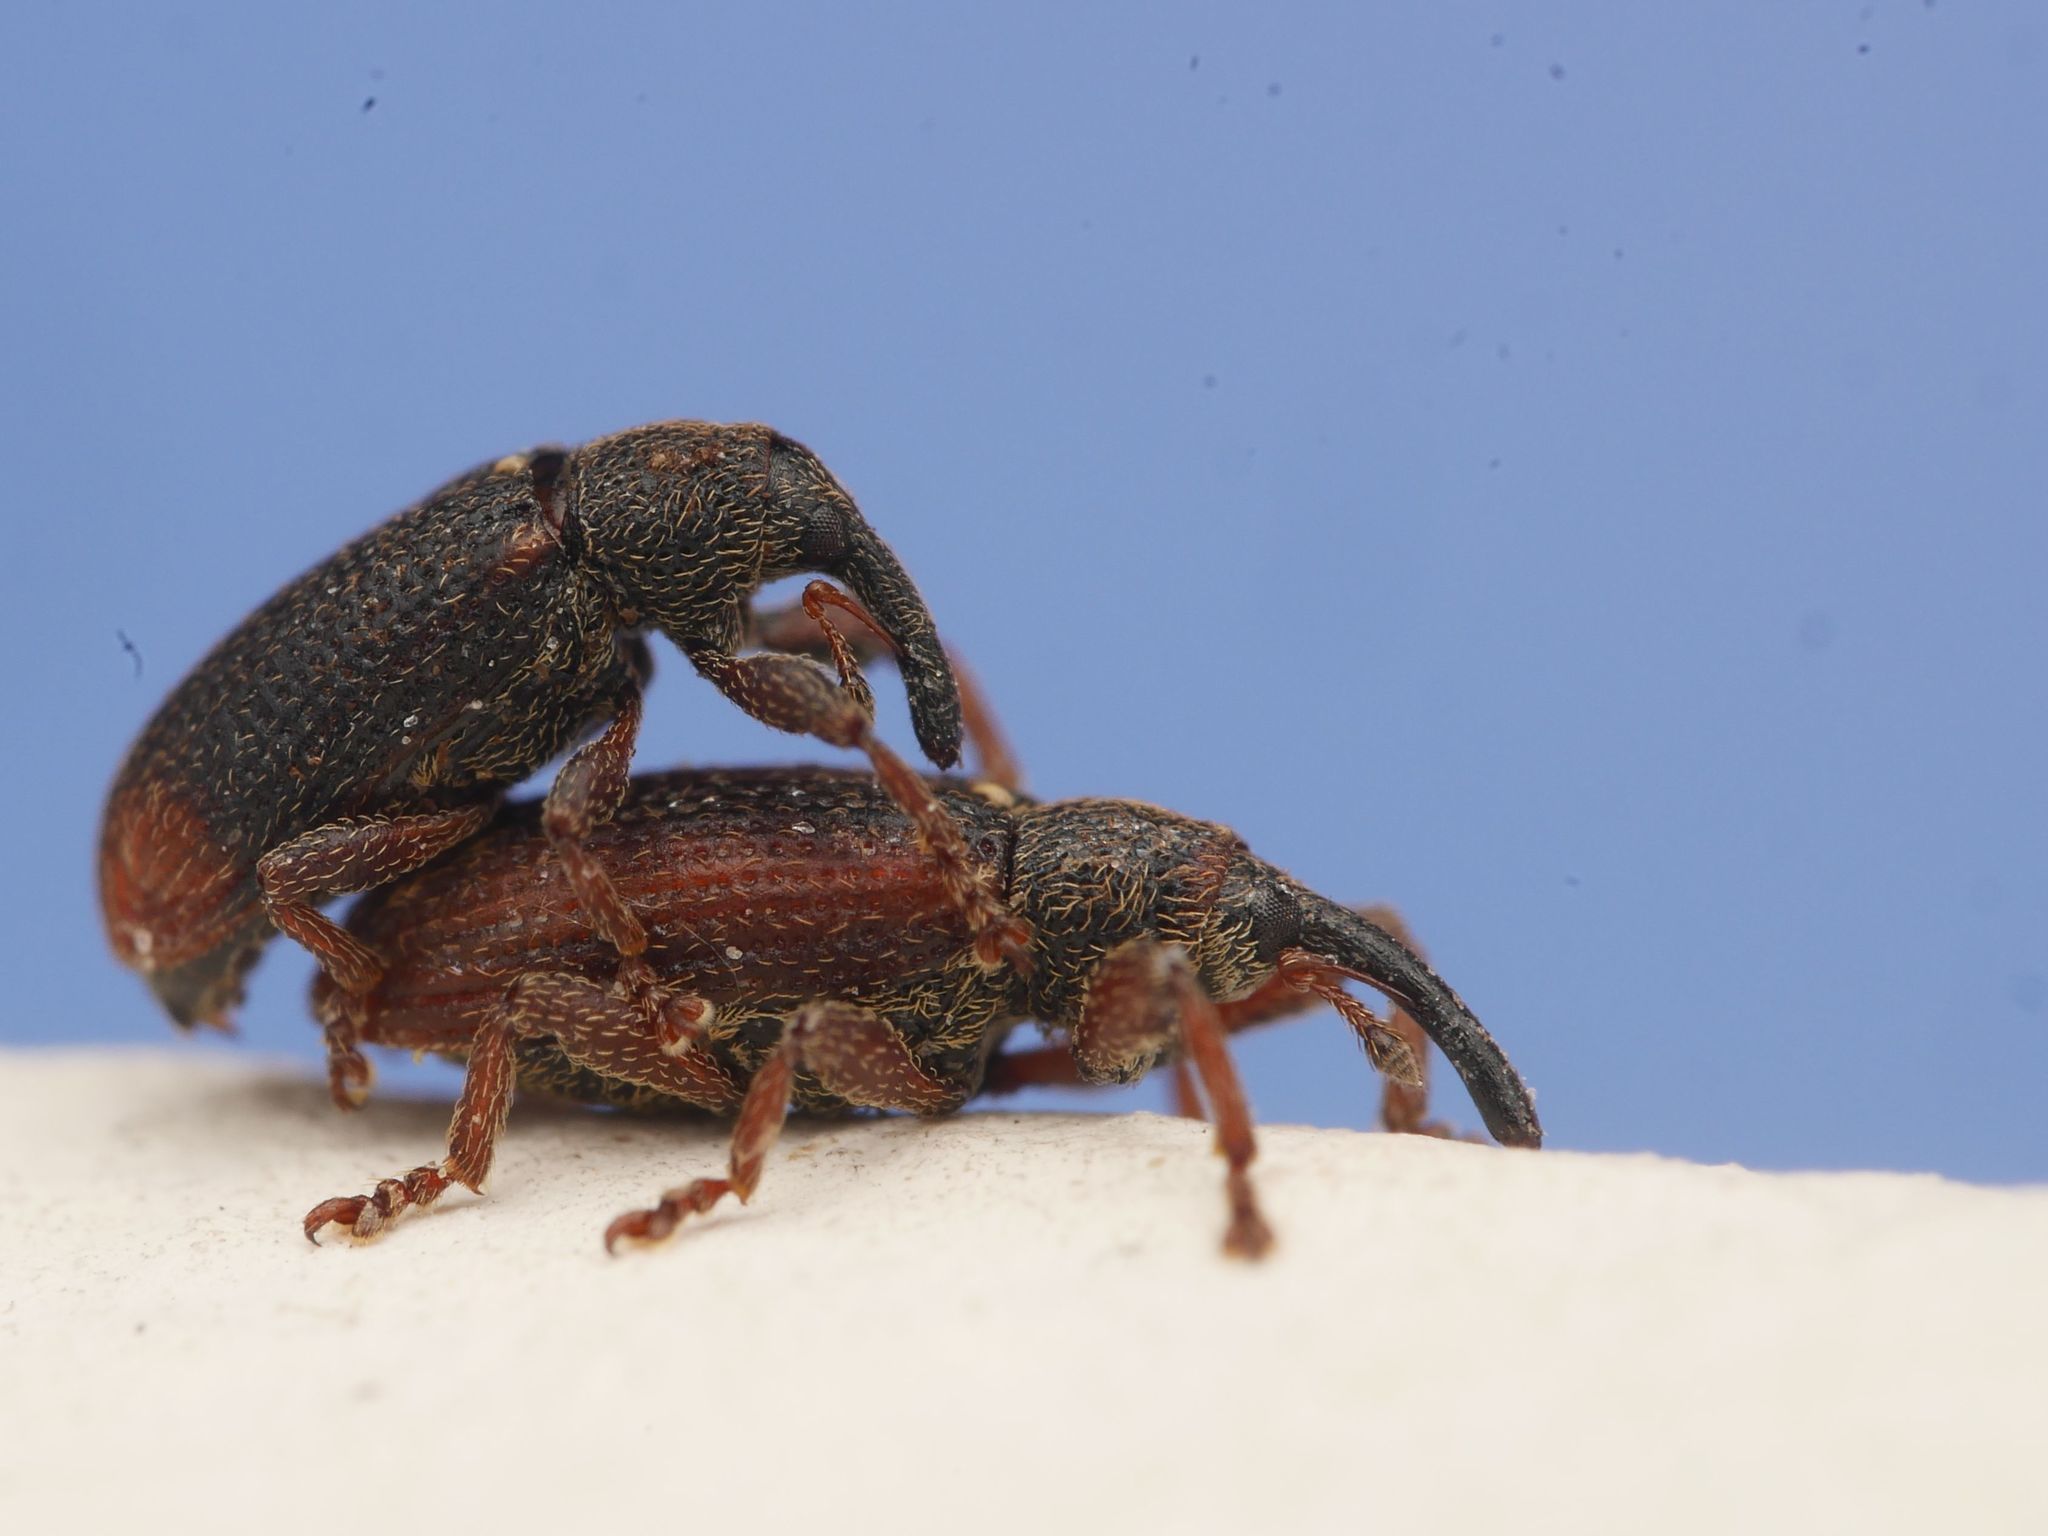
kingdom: Animalia
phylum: Arthropoda
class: Insecta
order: Coleoptera
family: Curculionidae
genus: Bradybatus
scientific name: Bradybatus kellneri
